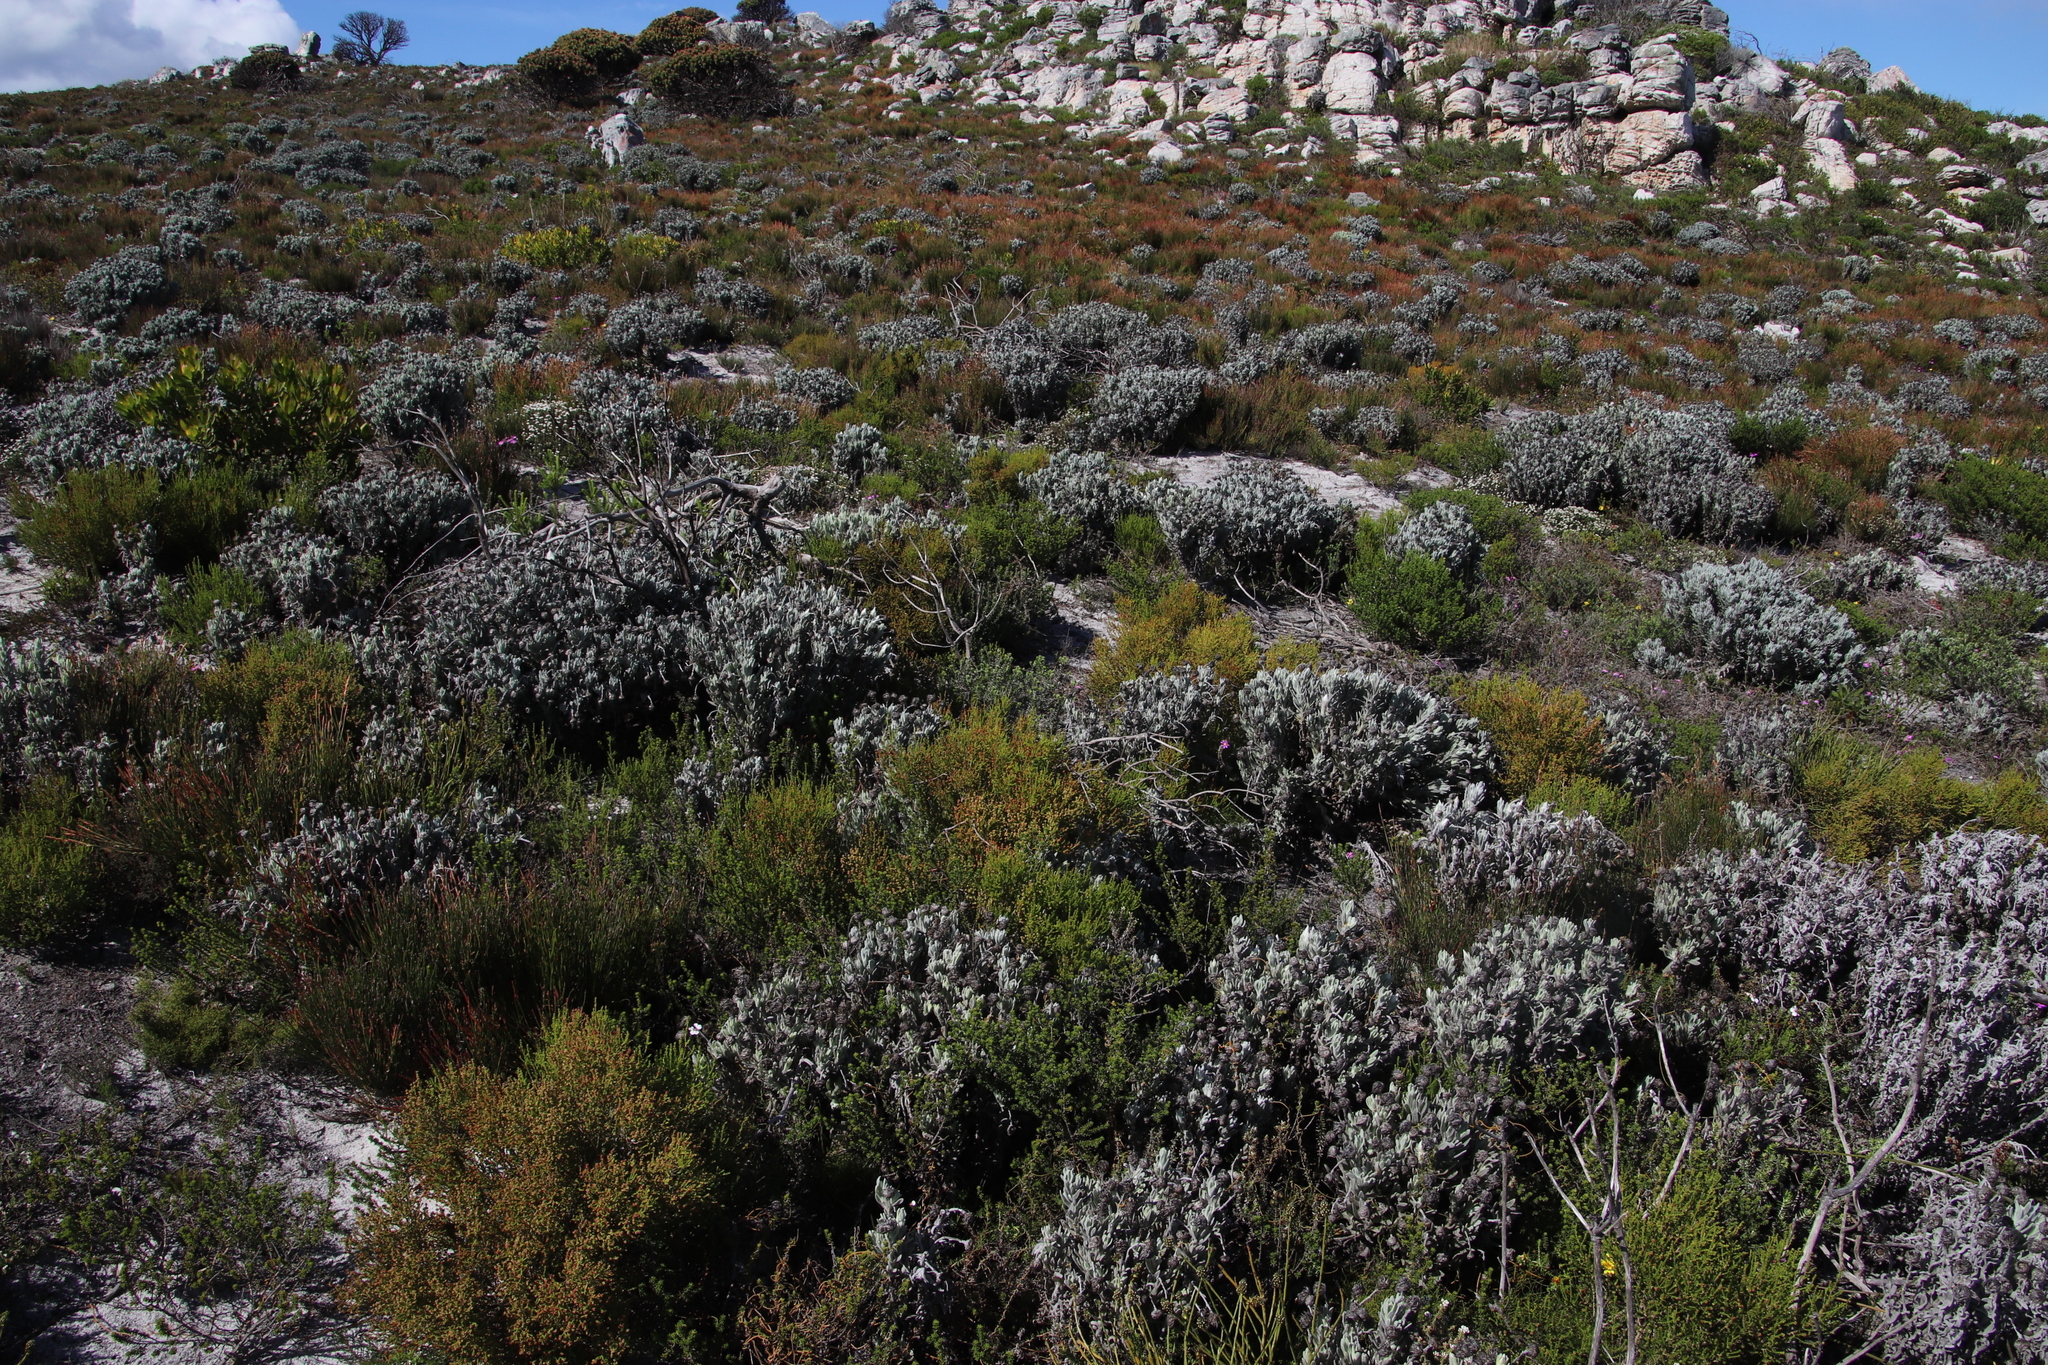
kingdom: Plantae
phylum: Tracheophyta
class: Magnoliopsida
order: Asterales
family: Asteraceae
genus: Syncarpha
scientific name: Syncarpha vestita
